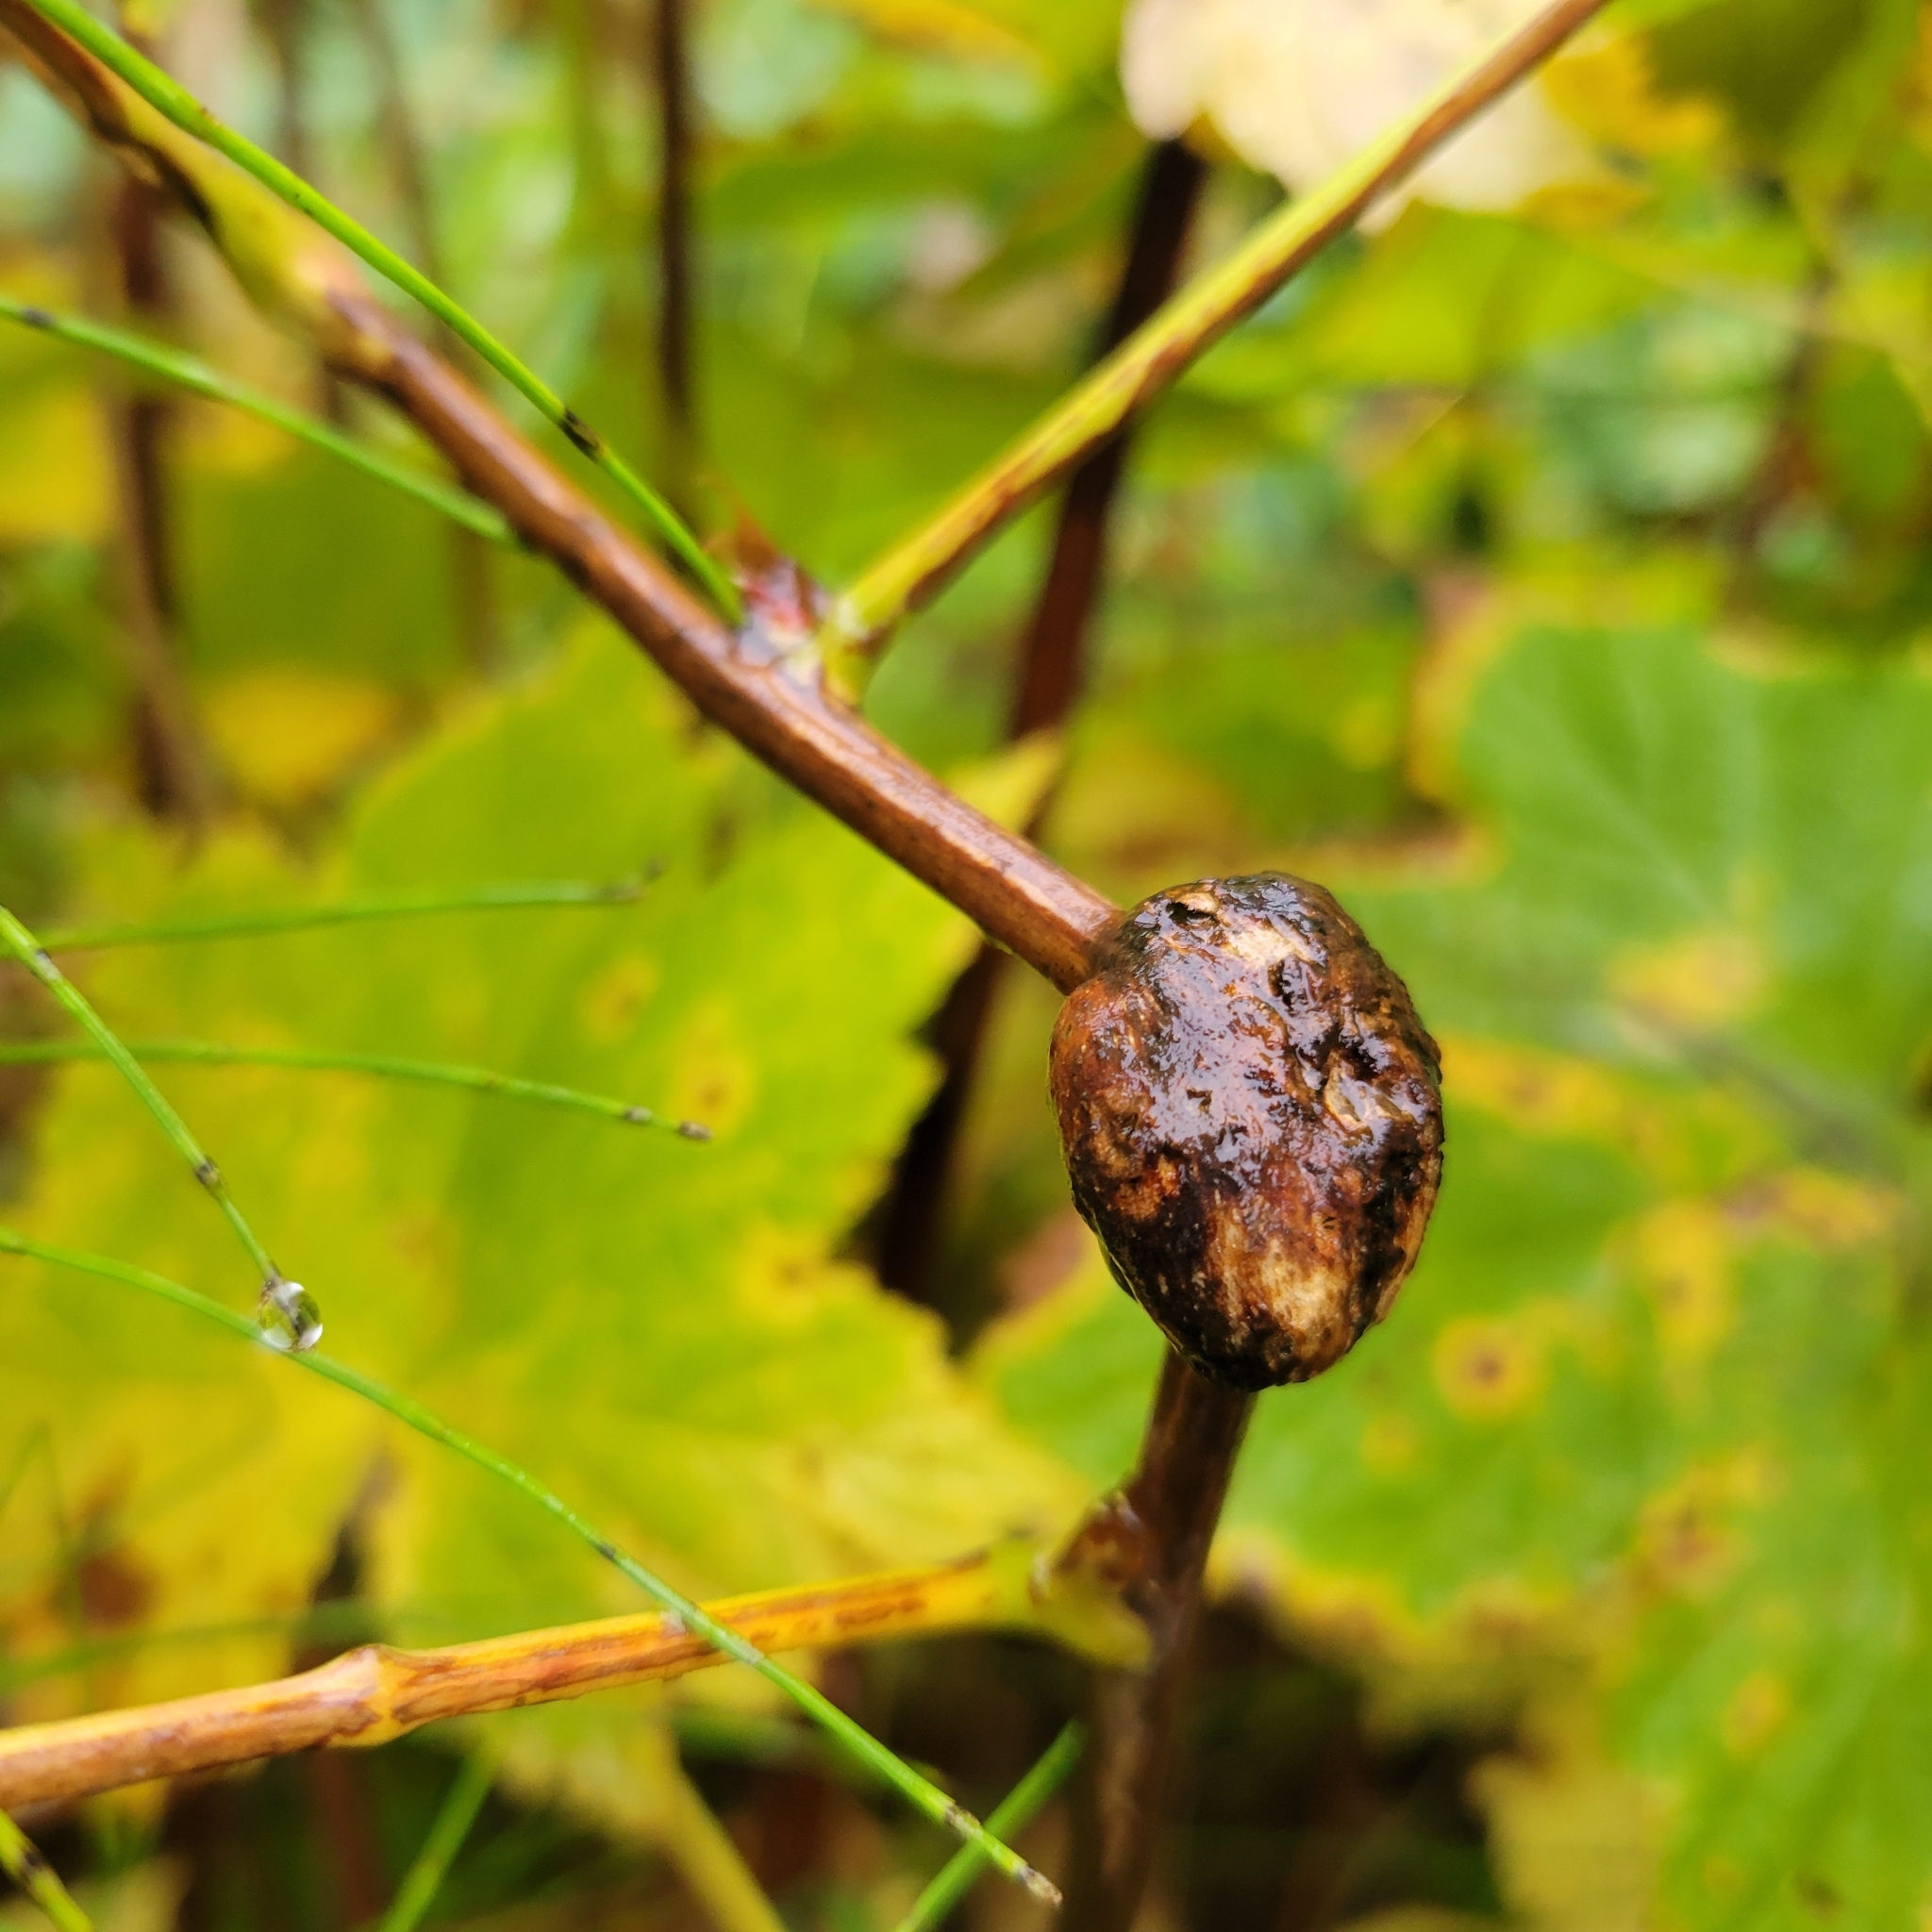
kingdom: Animalia
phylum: Arthropoda
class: Insecta
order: Hymenoptera
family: Cynipidae
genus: Diastrophus
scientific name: Diastrophus
